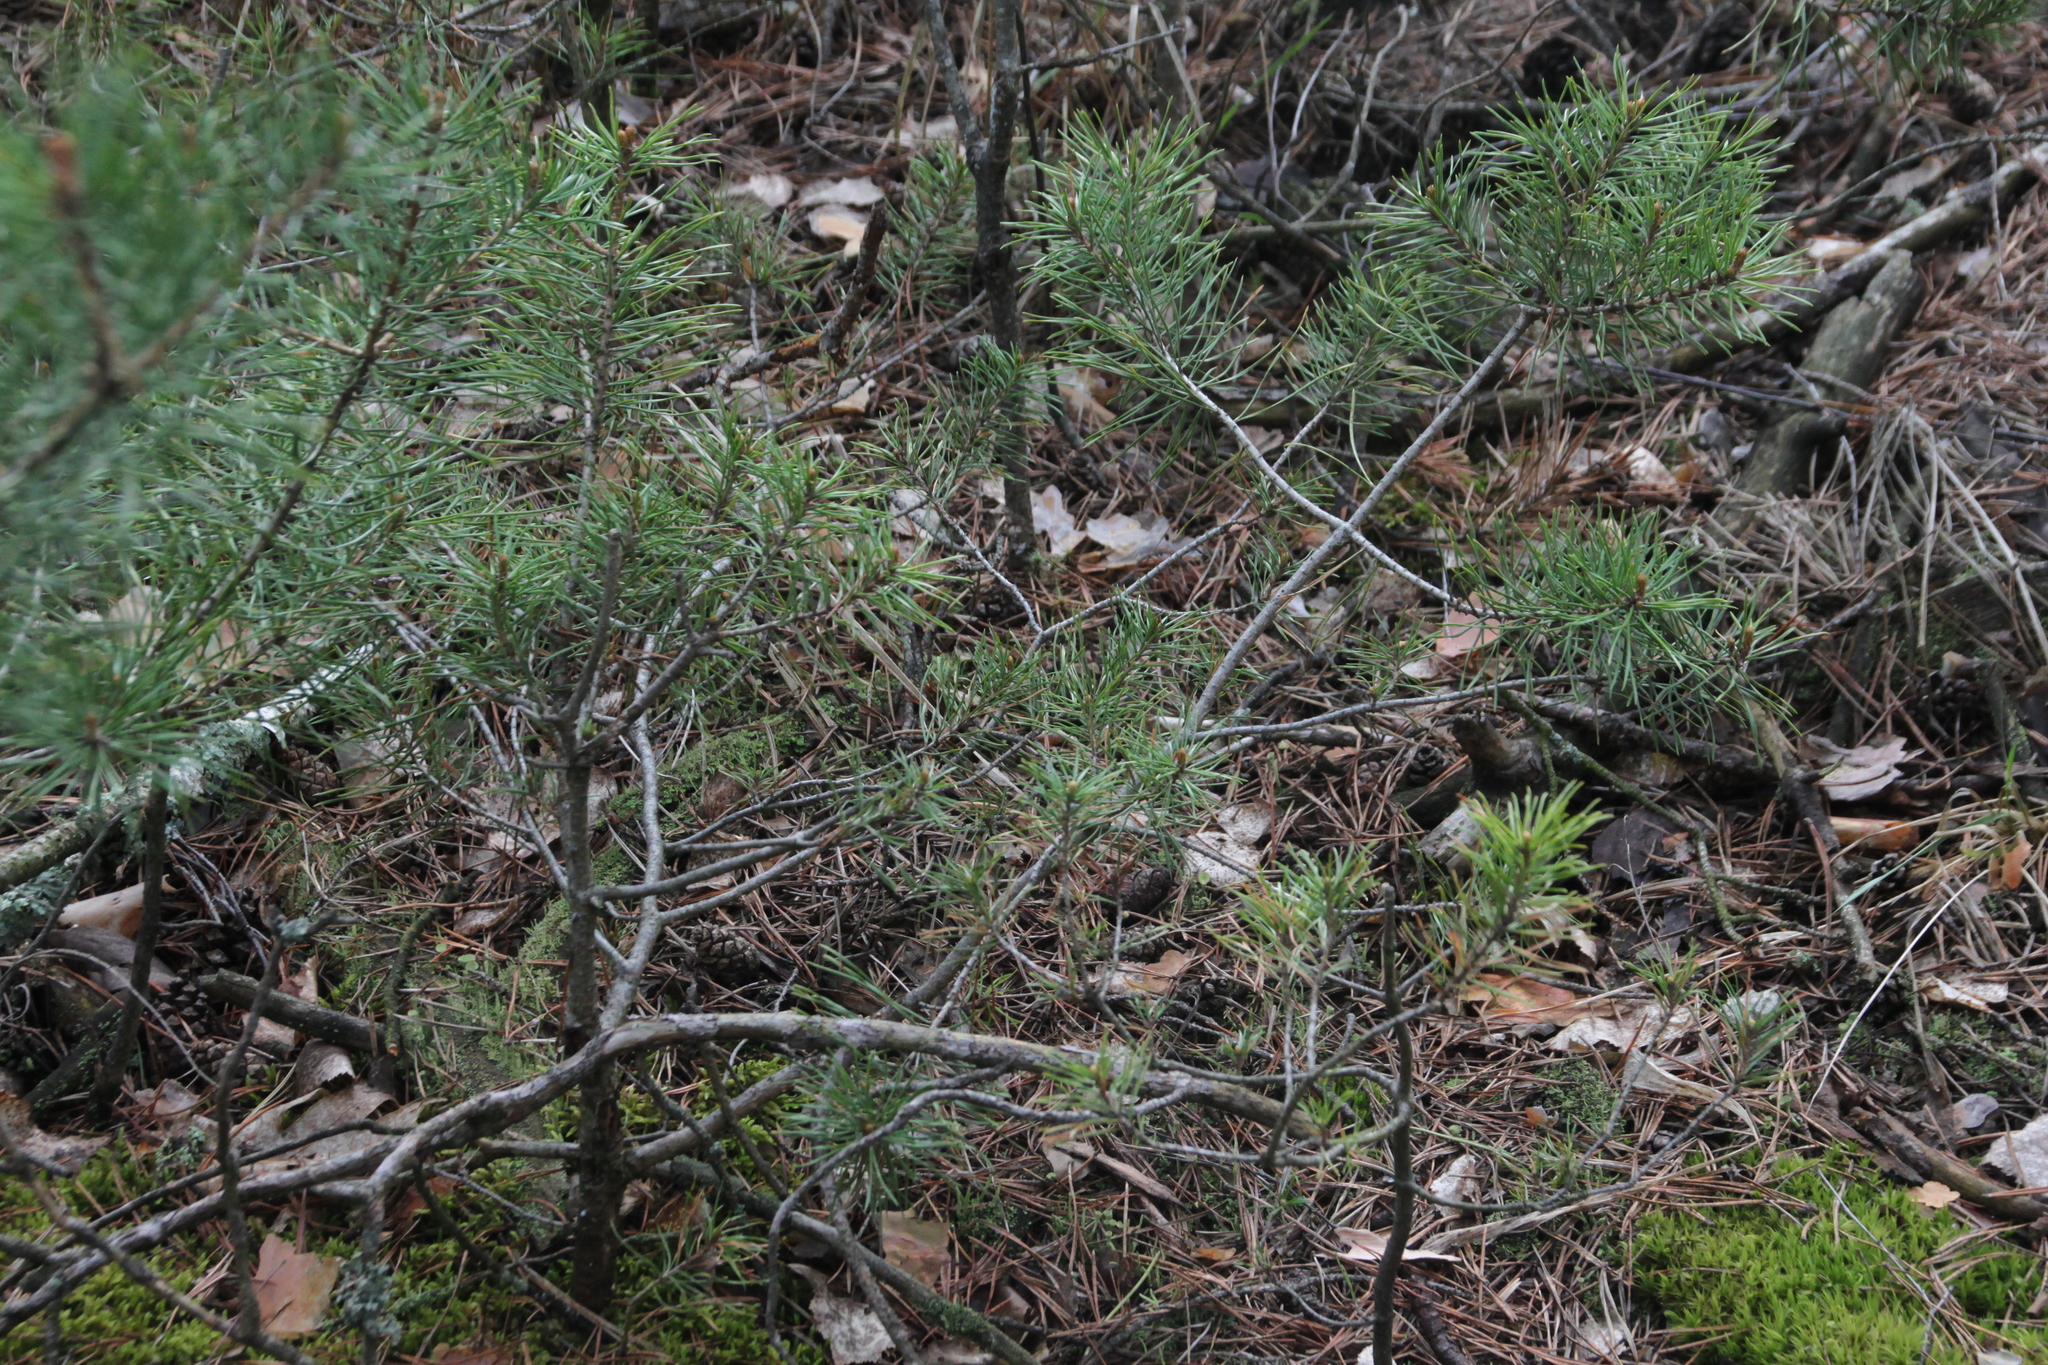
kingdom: Plantae
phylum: Tracheophyta
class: Pinopsida
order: Pinales
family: Pinaceae
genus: Pinus
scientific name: Pinus sylvestris
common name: Scots pine
